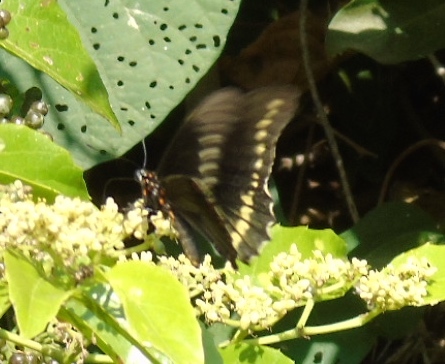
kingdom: Animalia
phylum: Arthropoda
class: Insecta
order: Lepidoptera
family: Papilionidae
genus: Battus
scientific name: Battus polydamas
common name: Polydamas swallowtail
